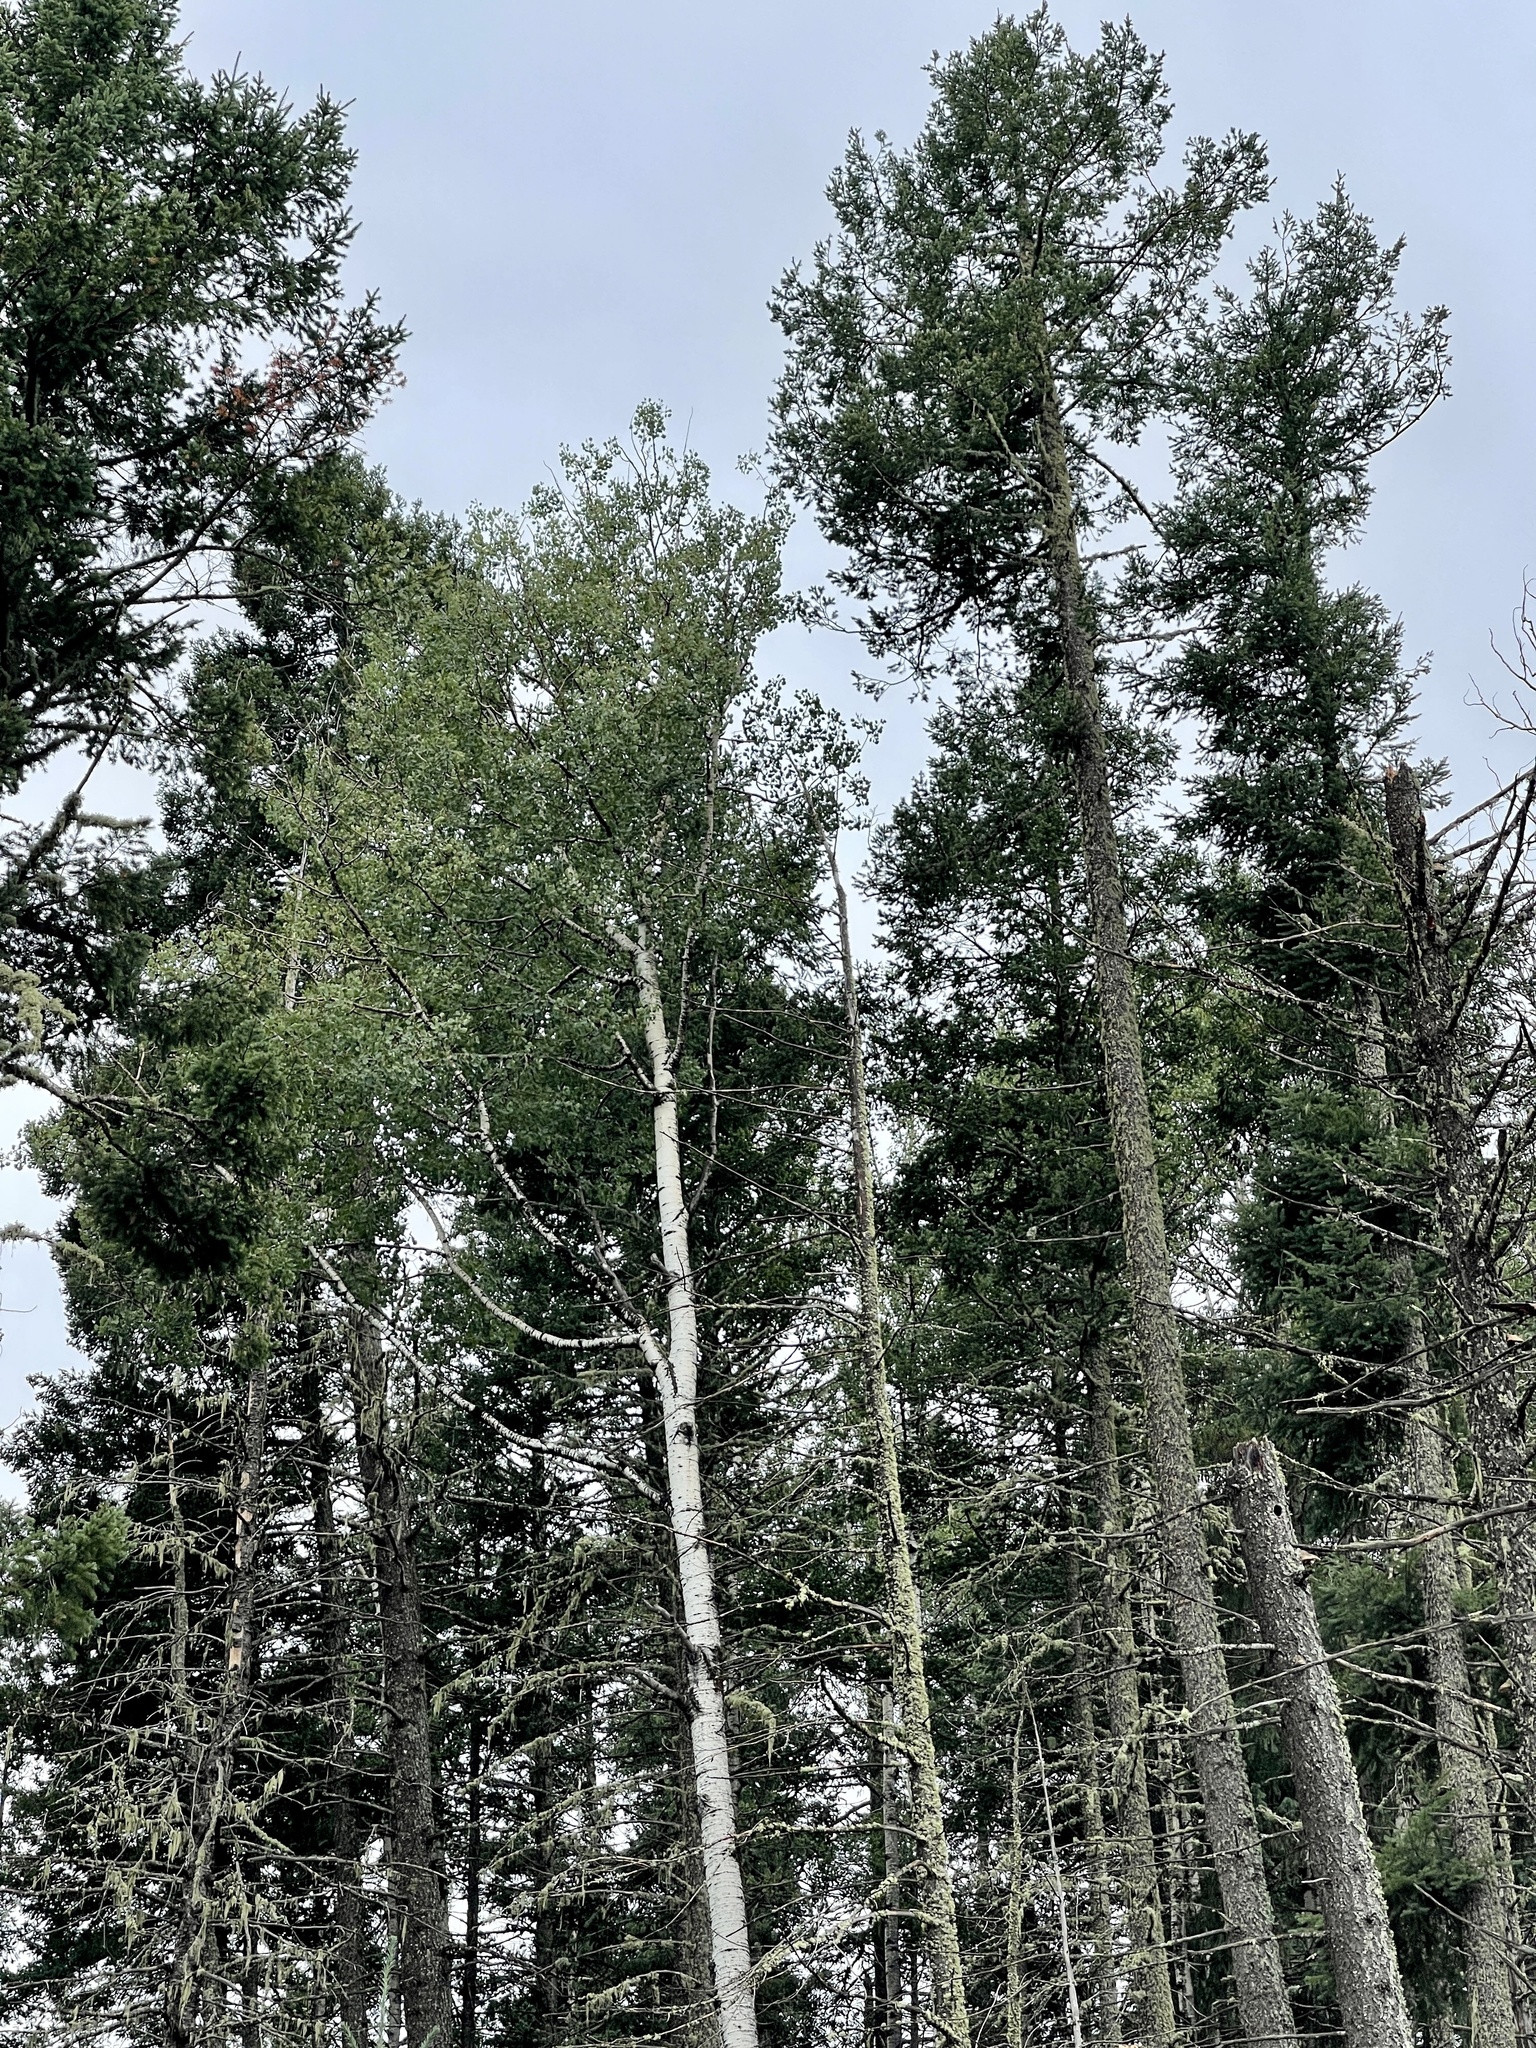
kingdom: Plantae
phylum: Tracheophyta
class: Magnoliopsida
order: Malpighiales
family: Salicaceae
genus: Populus
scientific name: Populus tremuloides
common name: Quaking aspen
